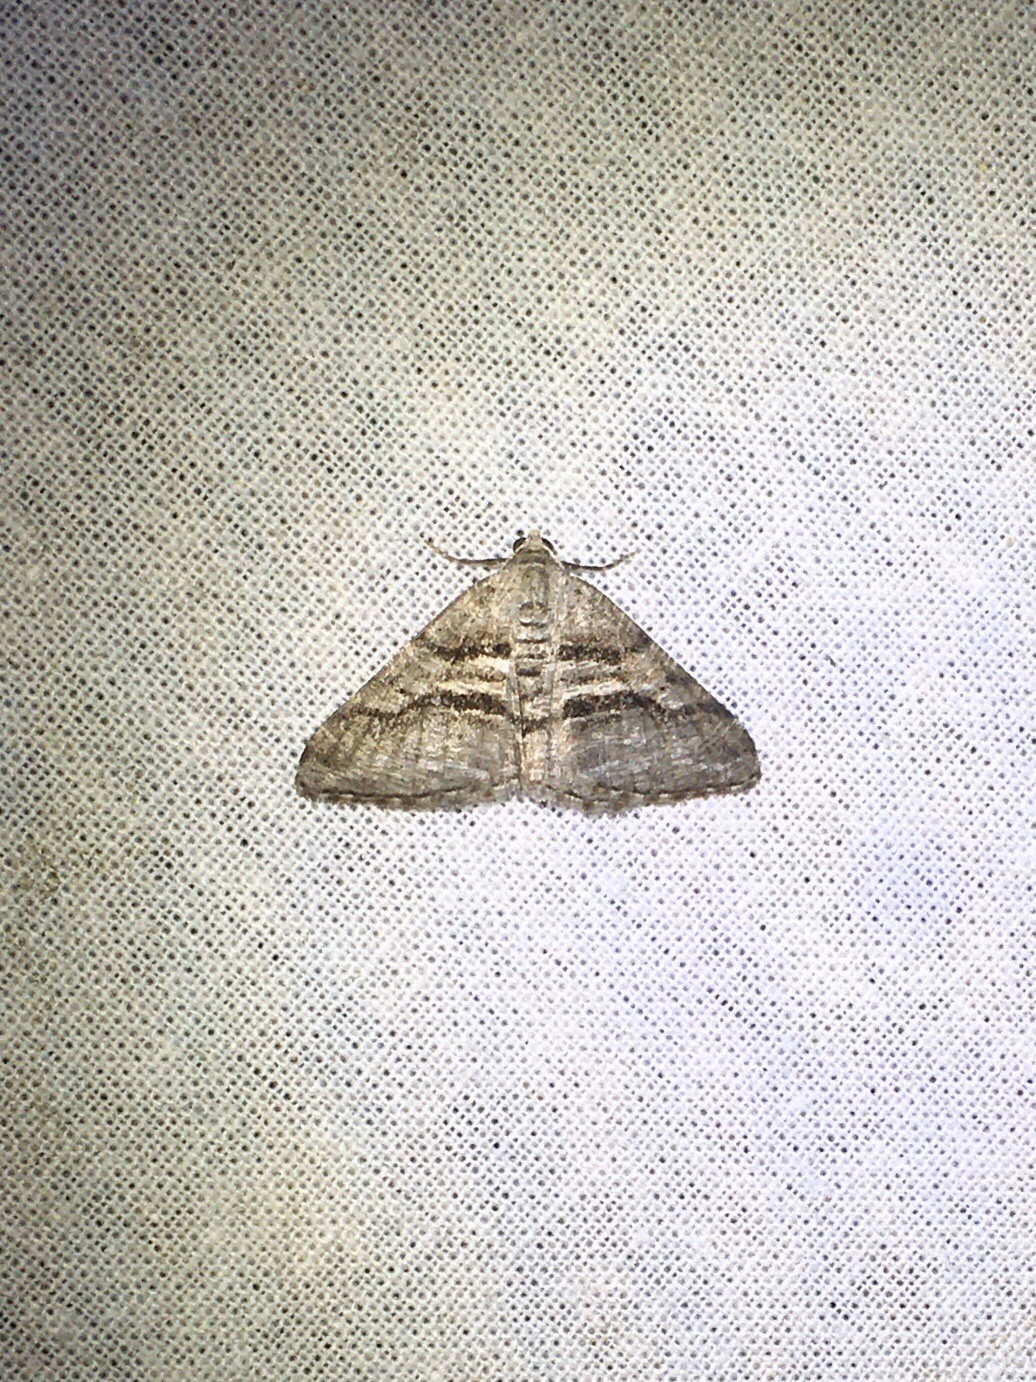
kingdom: Animalia
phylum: Arthropoda
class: Insecta
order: Lepidoptera
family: Geometridae
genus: Digrammia
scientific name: Digrammia continuata
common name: Curve-lined angle
